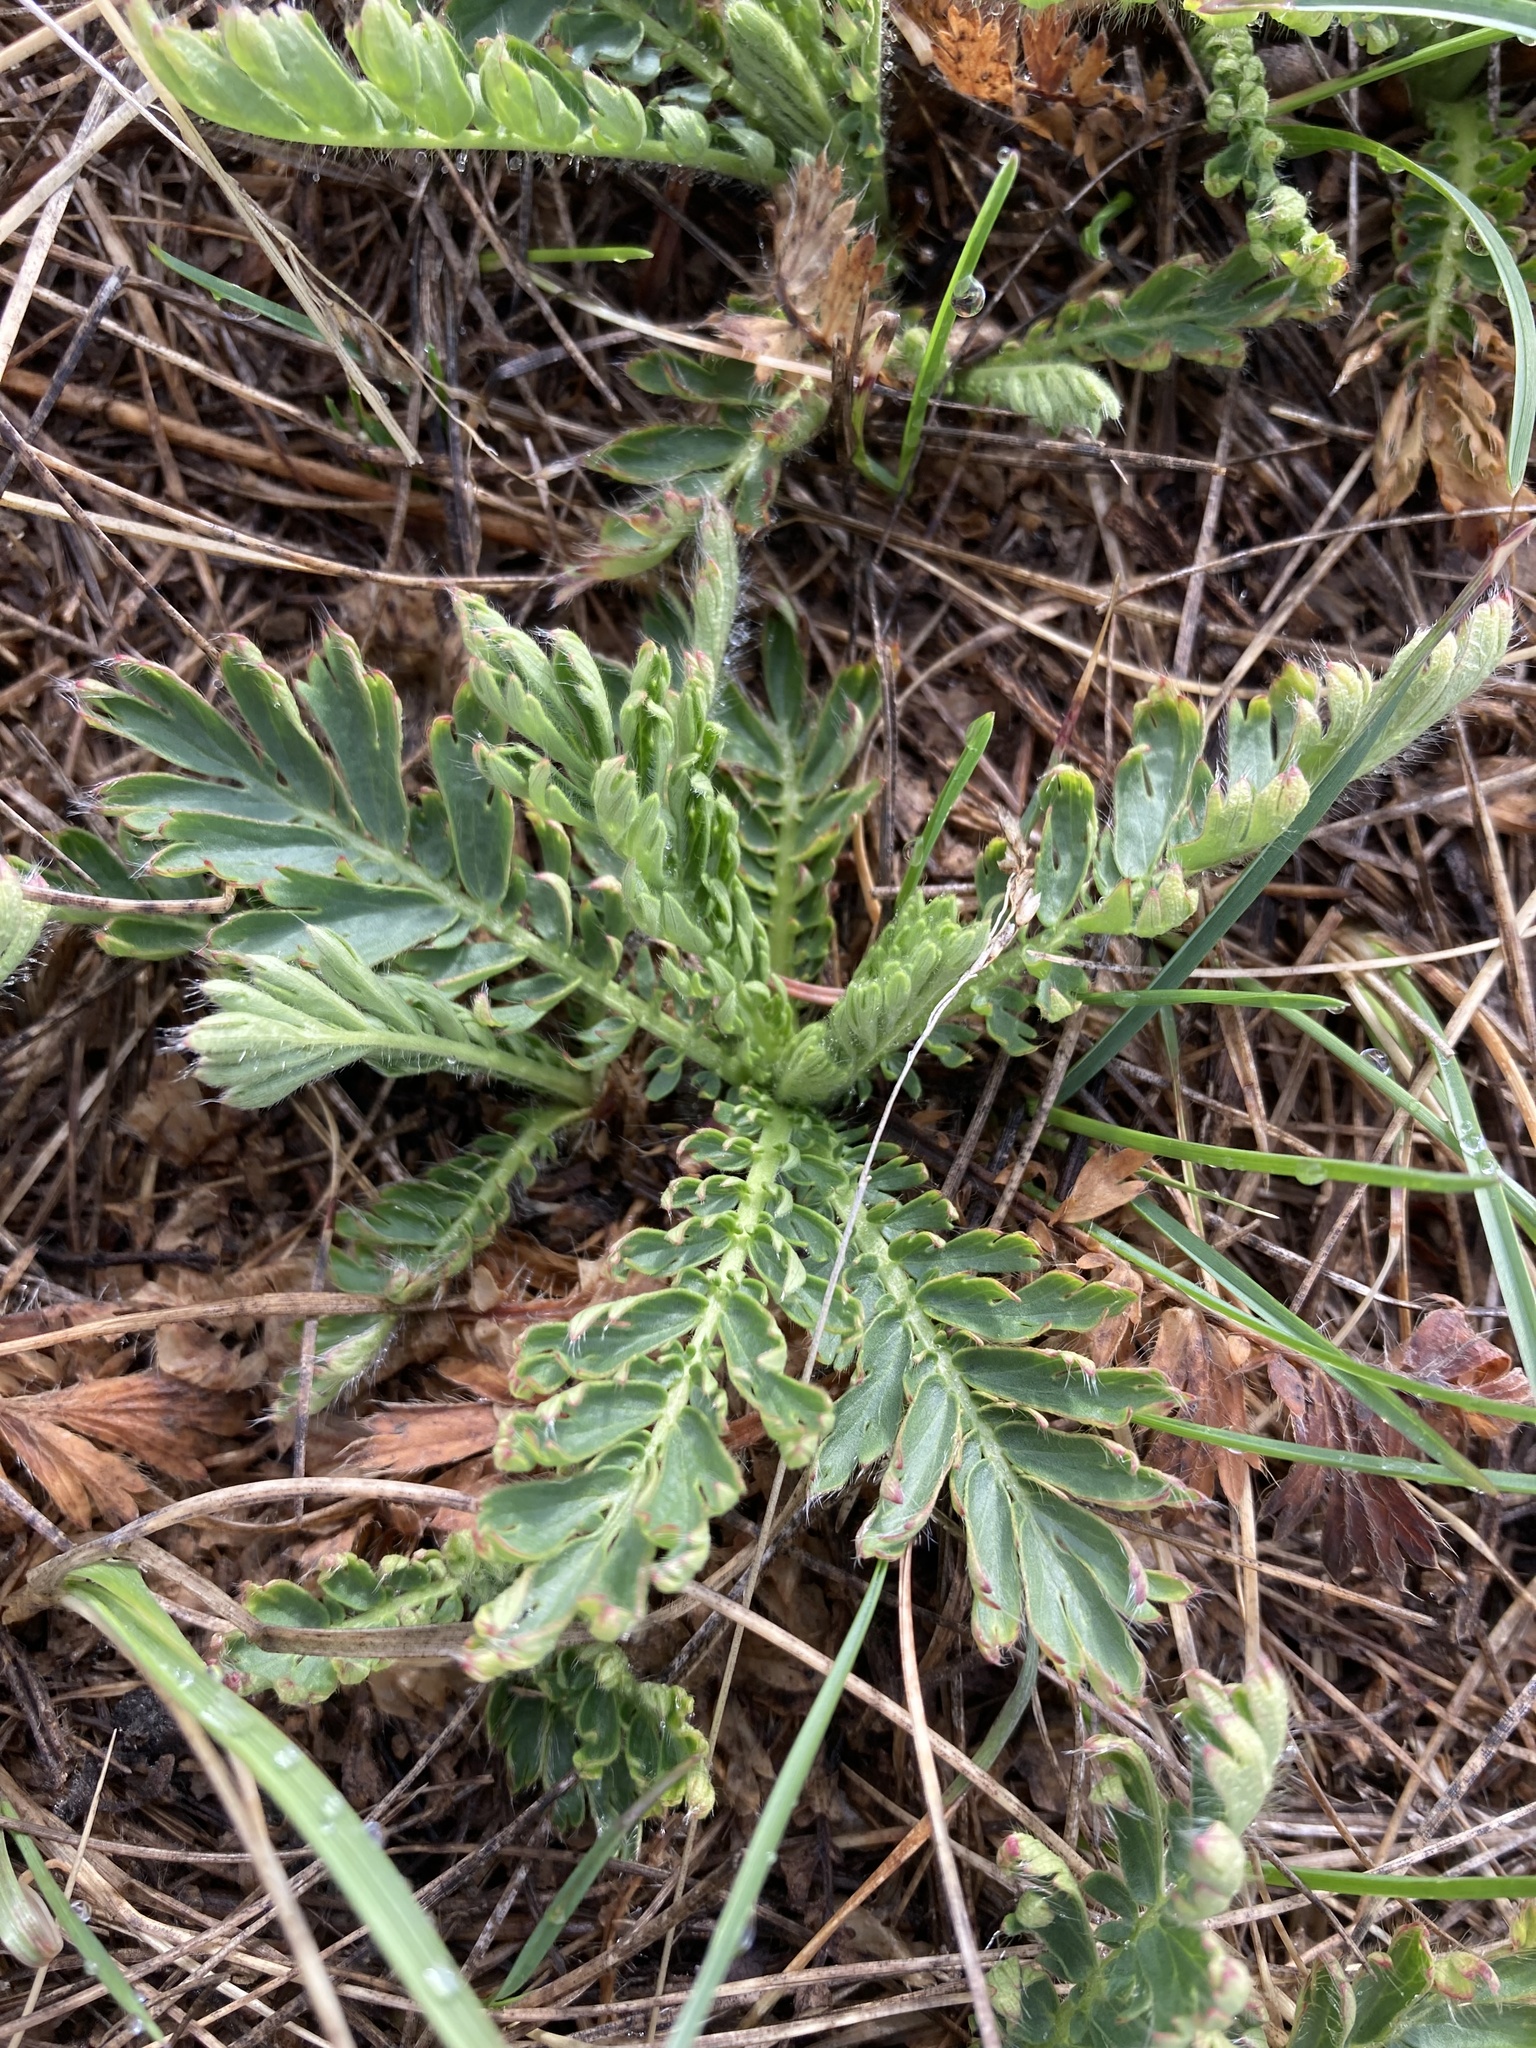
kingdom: Plantae
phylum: Tracheophyta
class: Magnoliopsida
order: Rosales
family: Rosaceae
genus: Geum
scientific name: Geum triflorum
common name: Old man's whiskers
